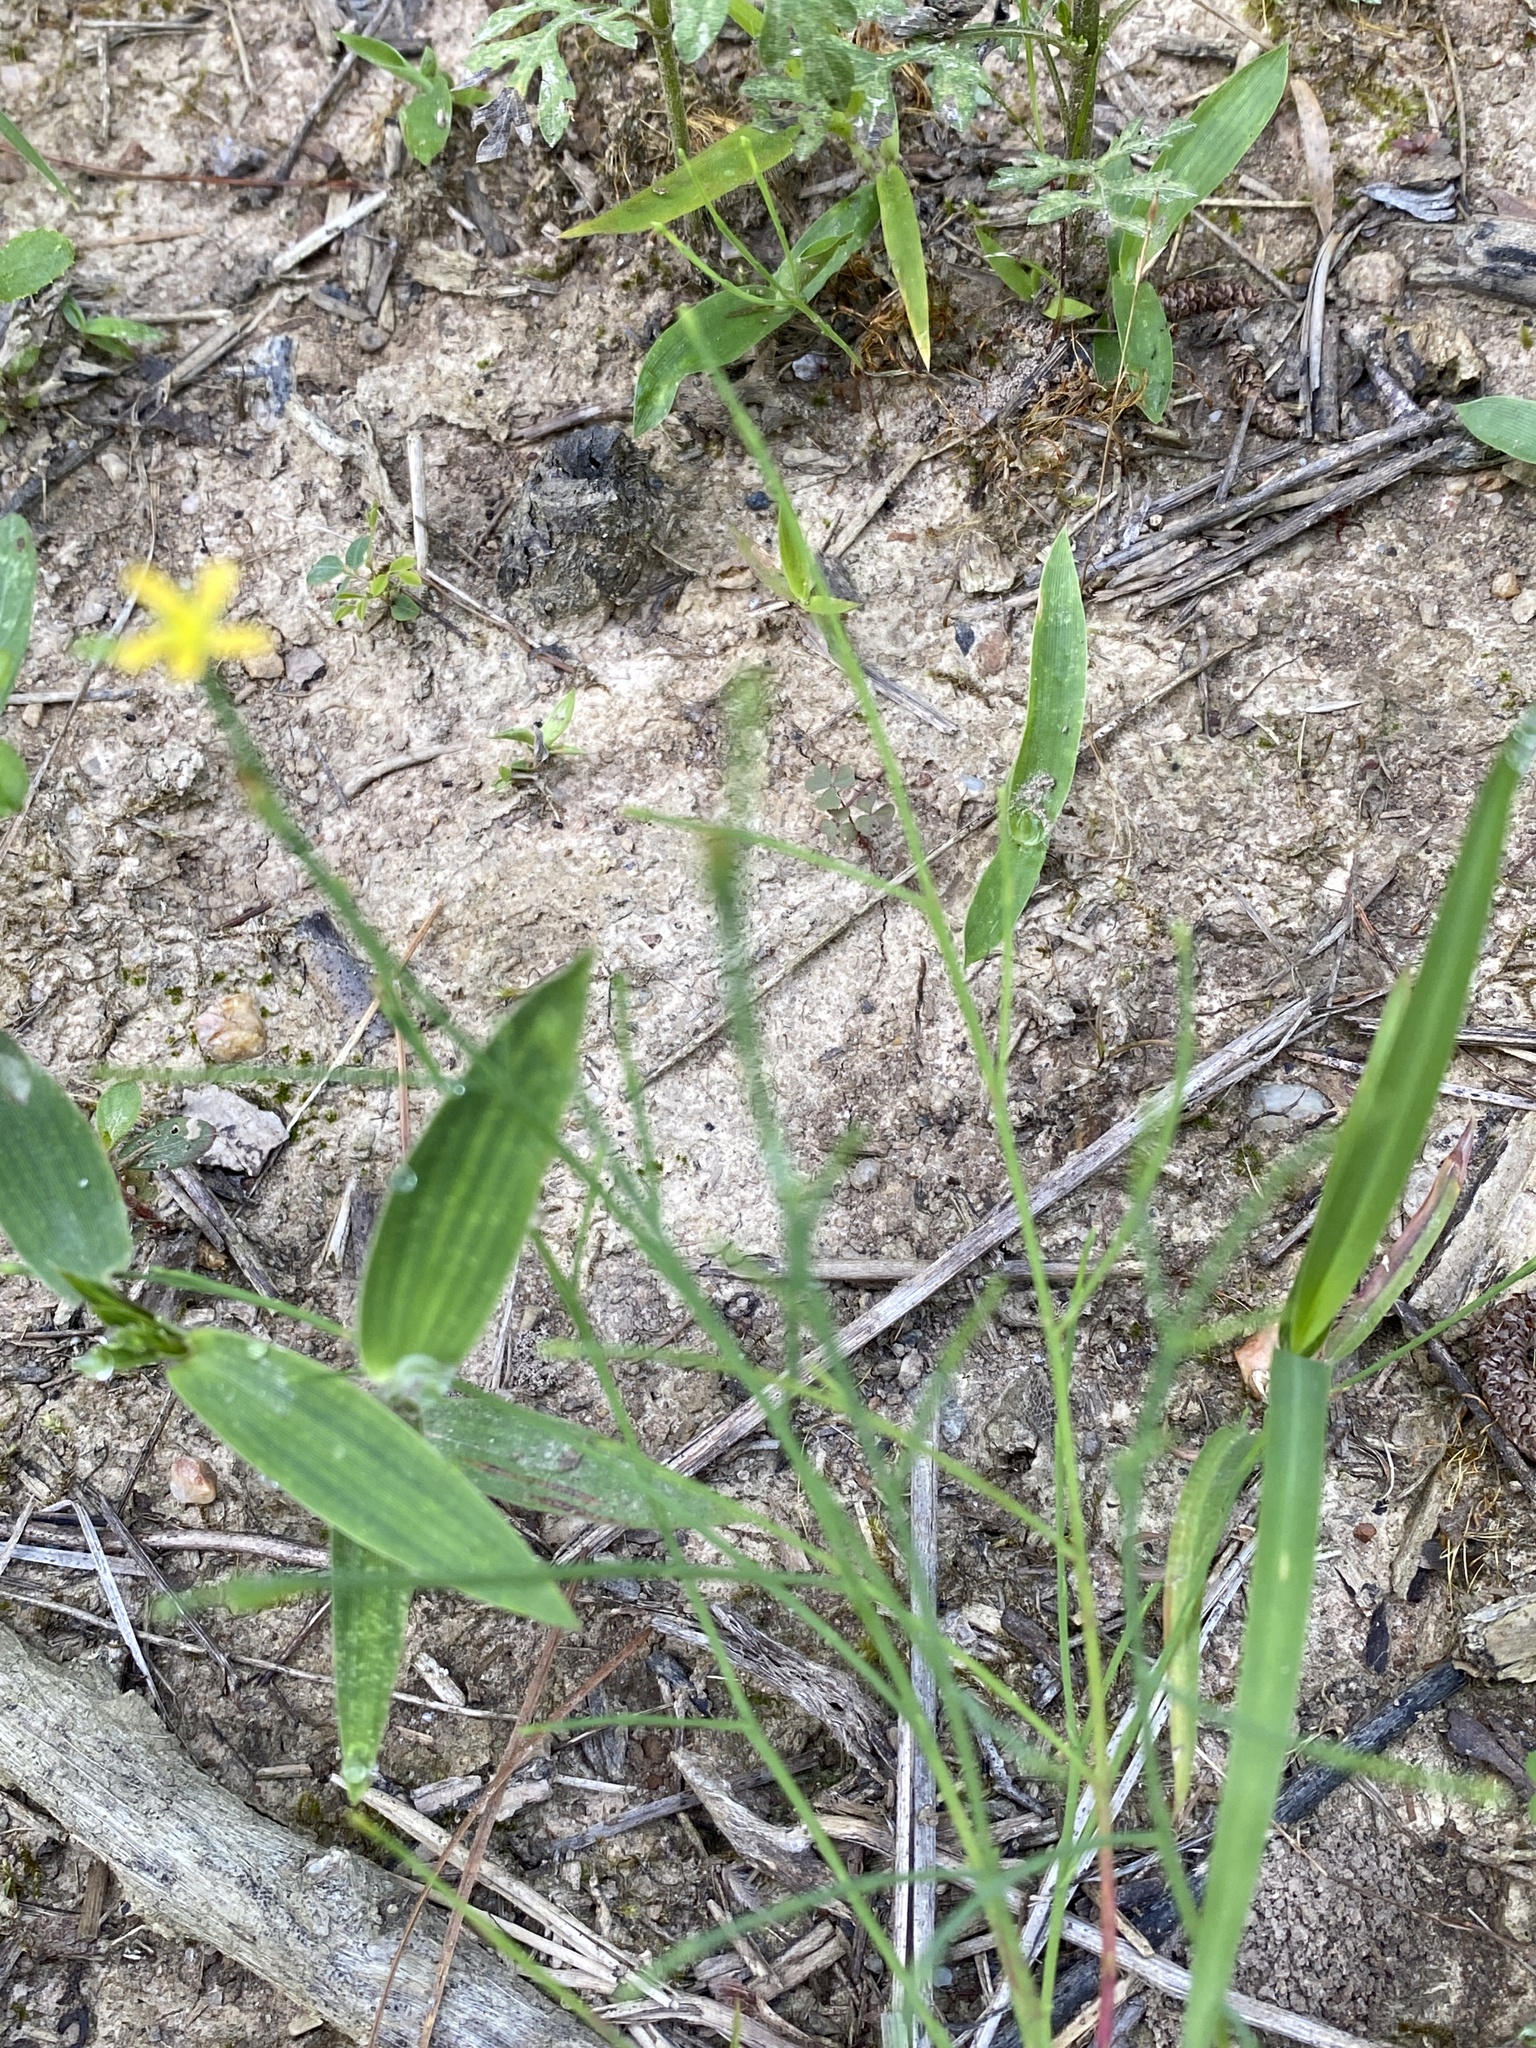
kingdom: Plantae
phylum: Tracheophyta
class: Magnoliopsida
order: Malpighiales
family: Hypericaceae
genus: Hypericum
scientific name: Hypericum gentianoides
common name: Gentian-leaved st. john's-wort
